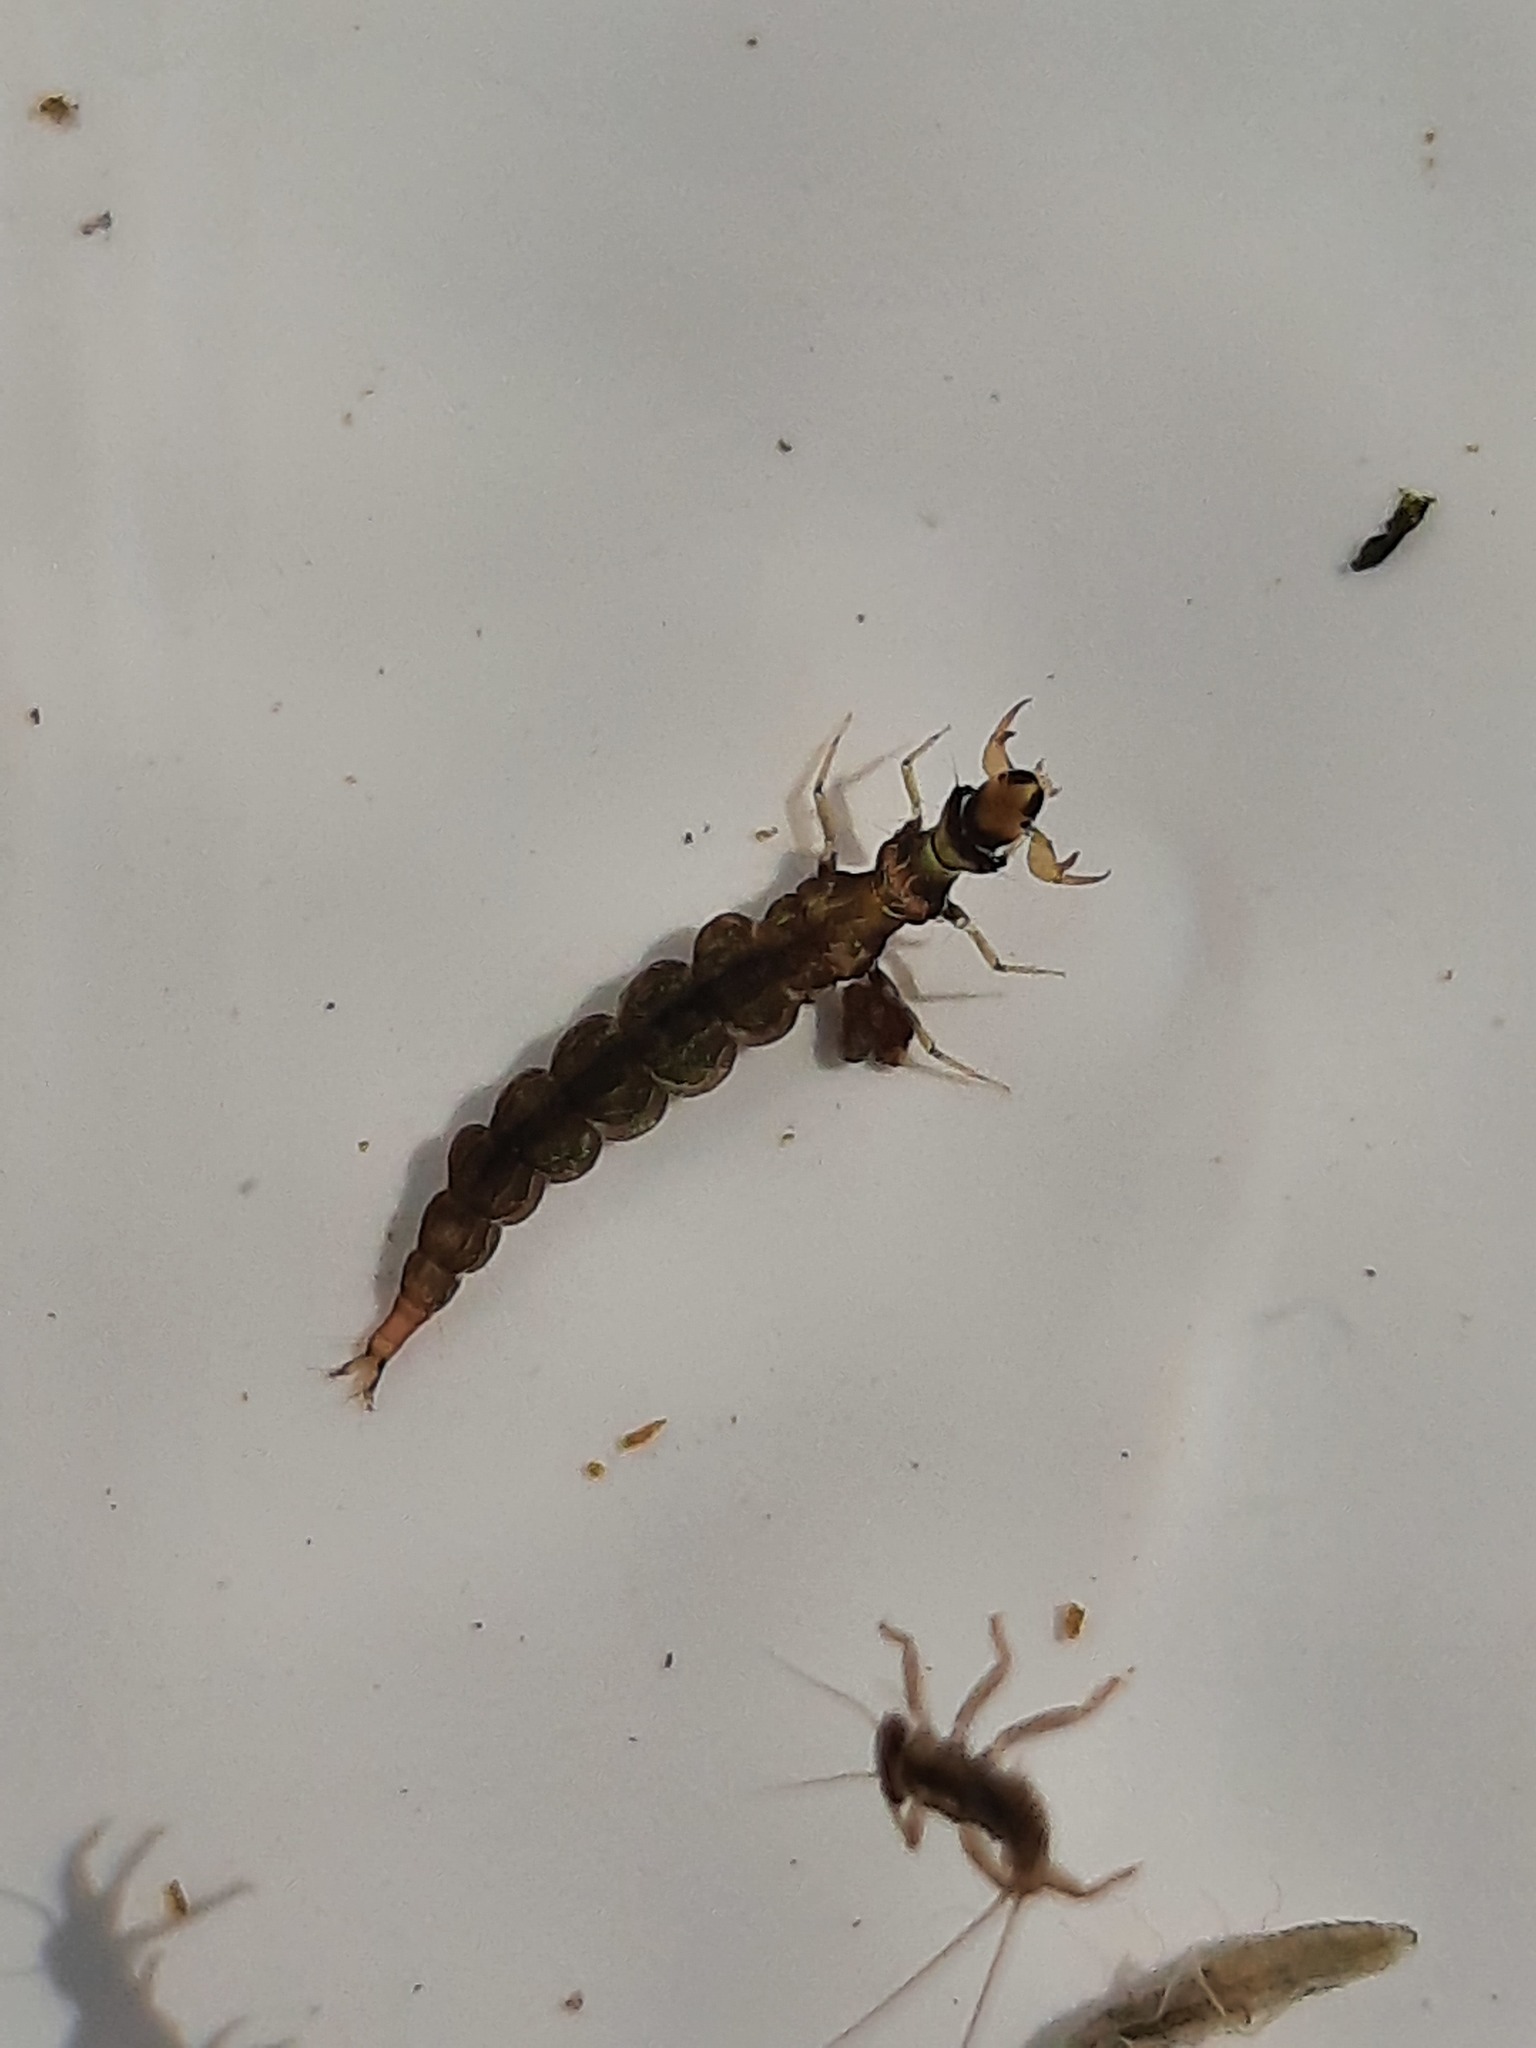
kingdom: Animalia
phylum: Arthropoda
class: Insecta
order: Trichoptera
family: Hydrobiosidae
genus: Hydrobiosis
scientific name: Hydrobiosis soror
